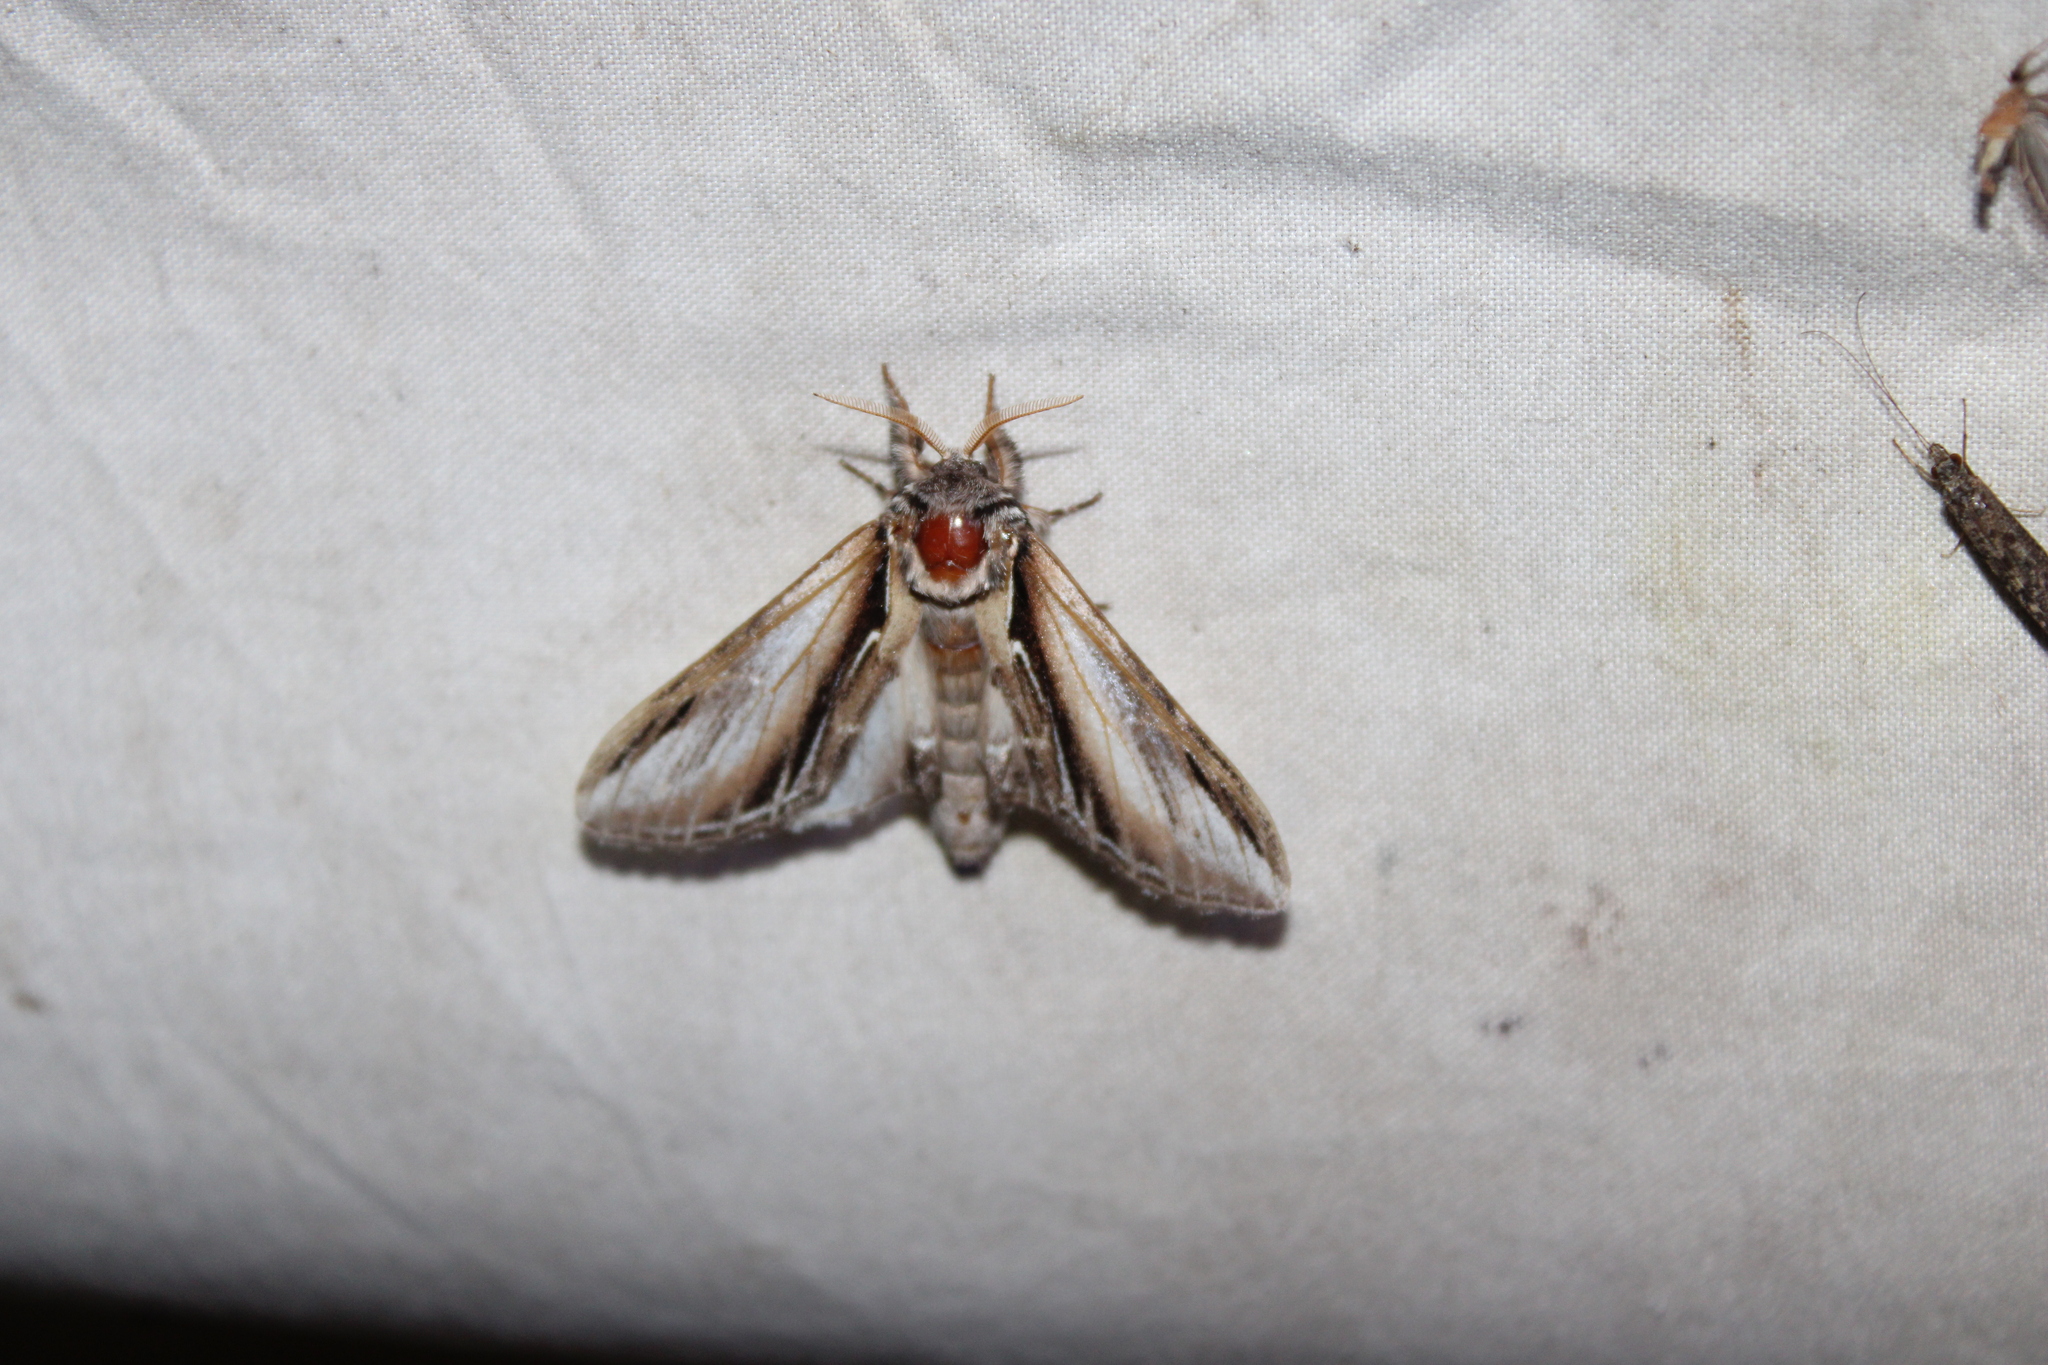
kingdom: Animalia
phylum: Arthropoda
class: Insecta
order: Lepidoptera
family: Notodontidae
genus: Pheosia
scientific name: Pheosia rimosa
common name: Black-rimmed prominent
